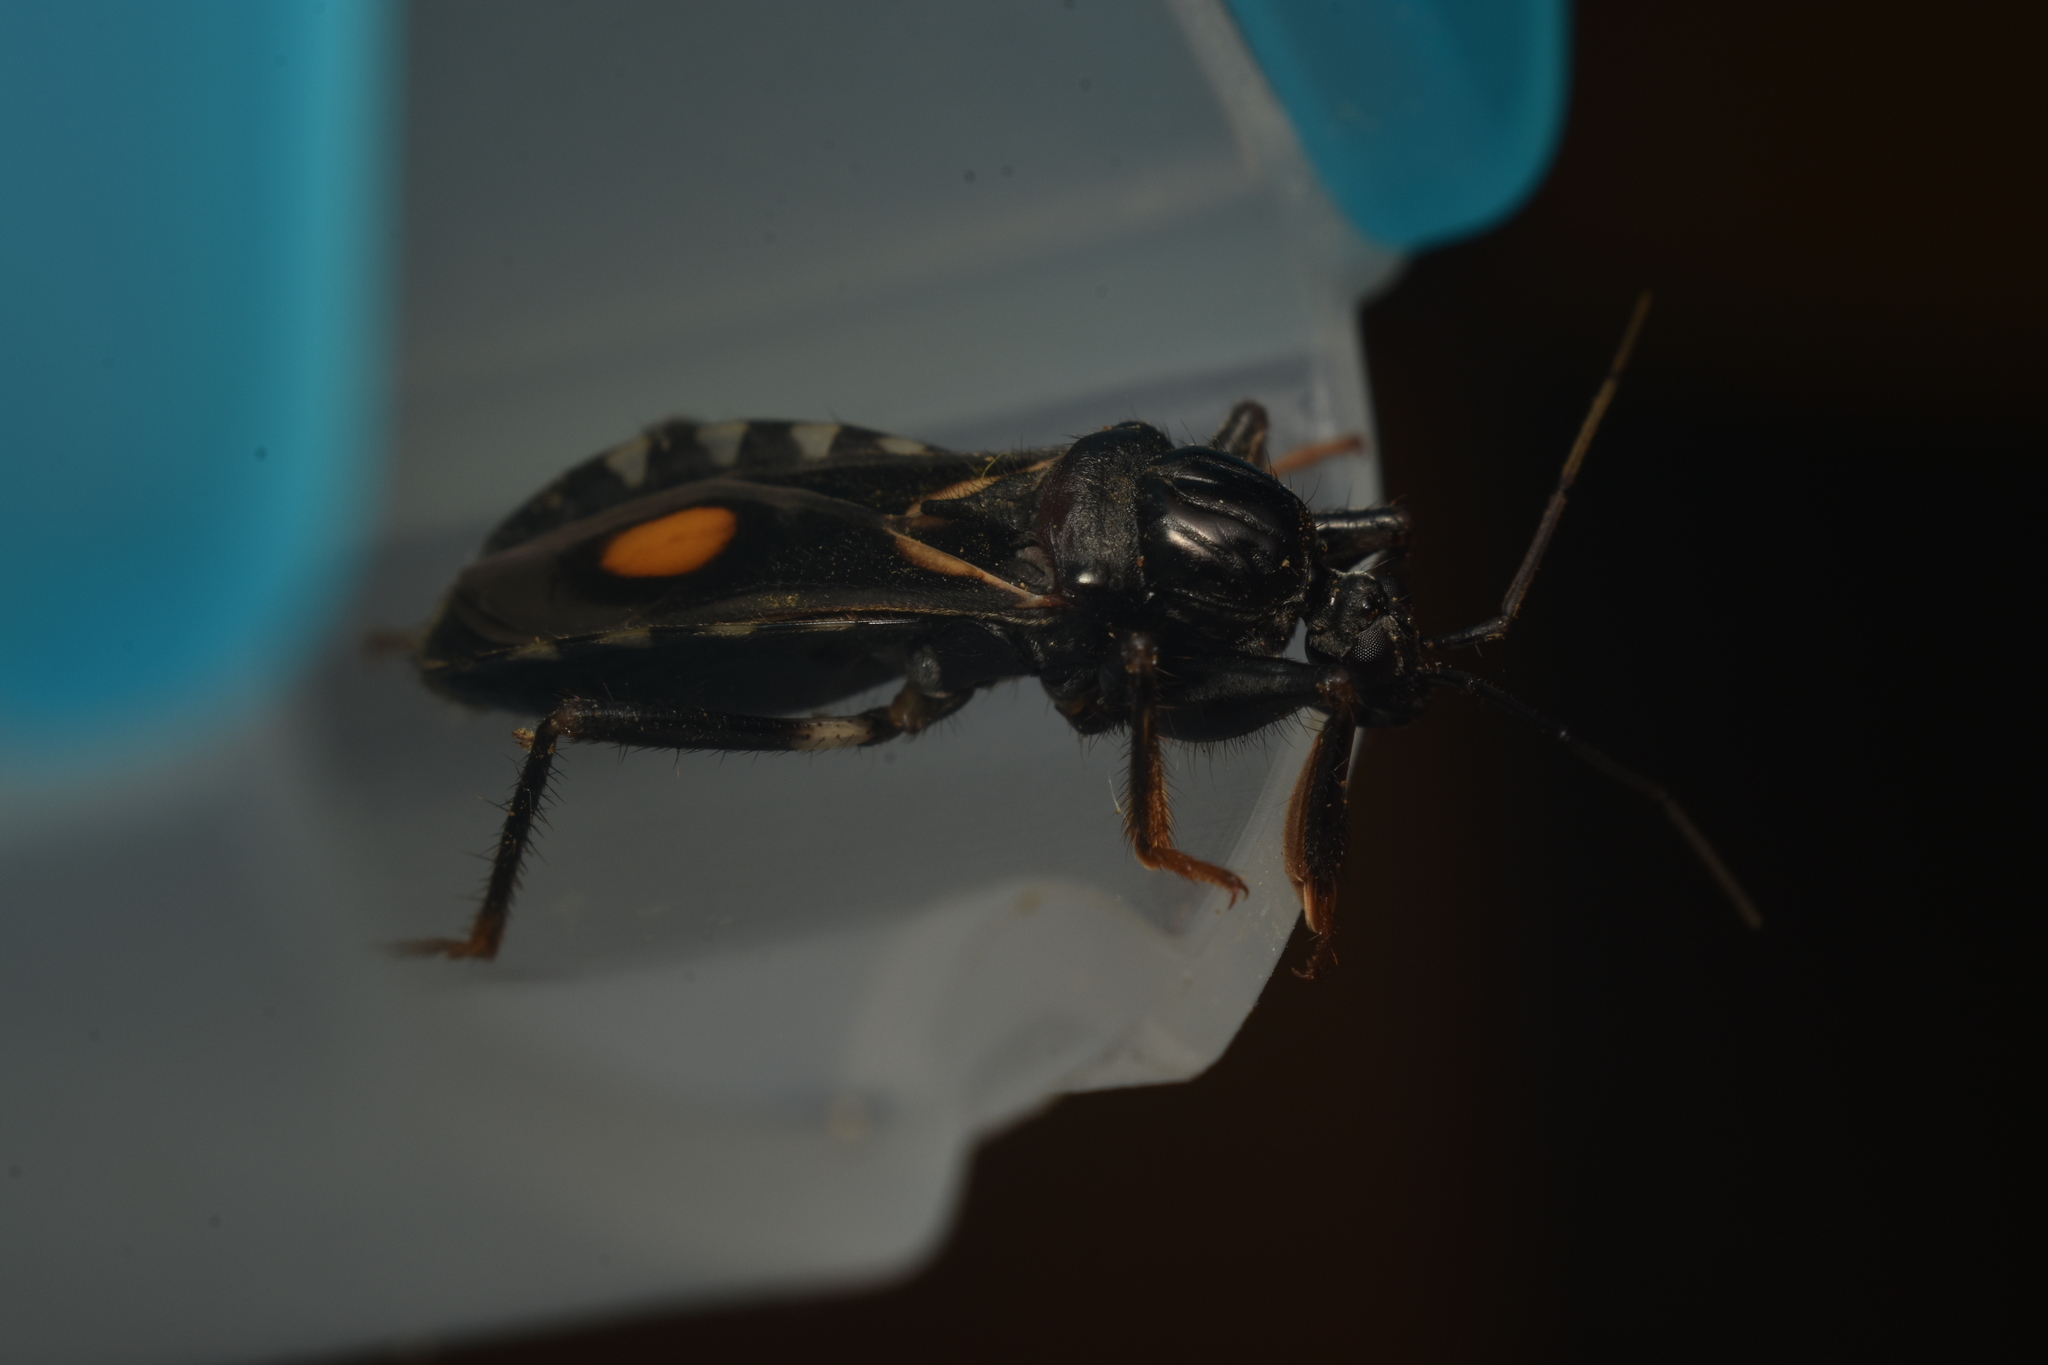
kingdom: Animalia
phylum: Arthropoda
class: Insecta
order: Hemiptera
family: Reduviidae
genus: Rasahus
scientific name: Rasahus hamatus
